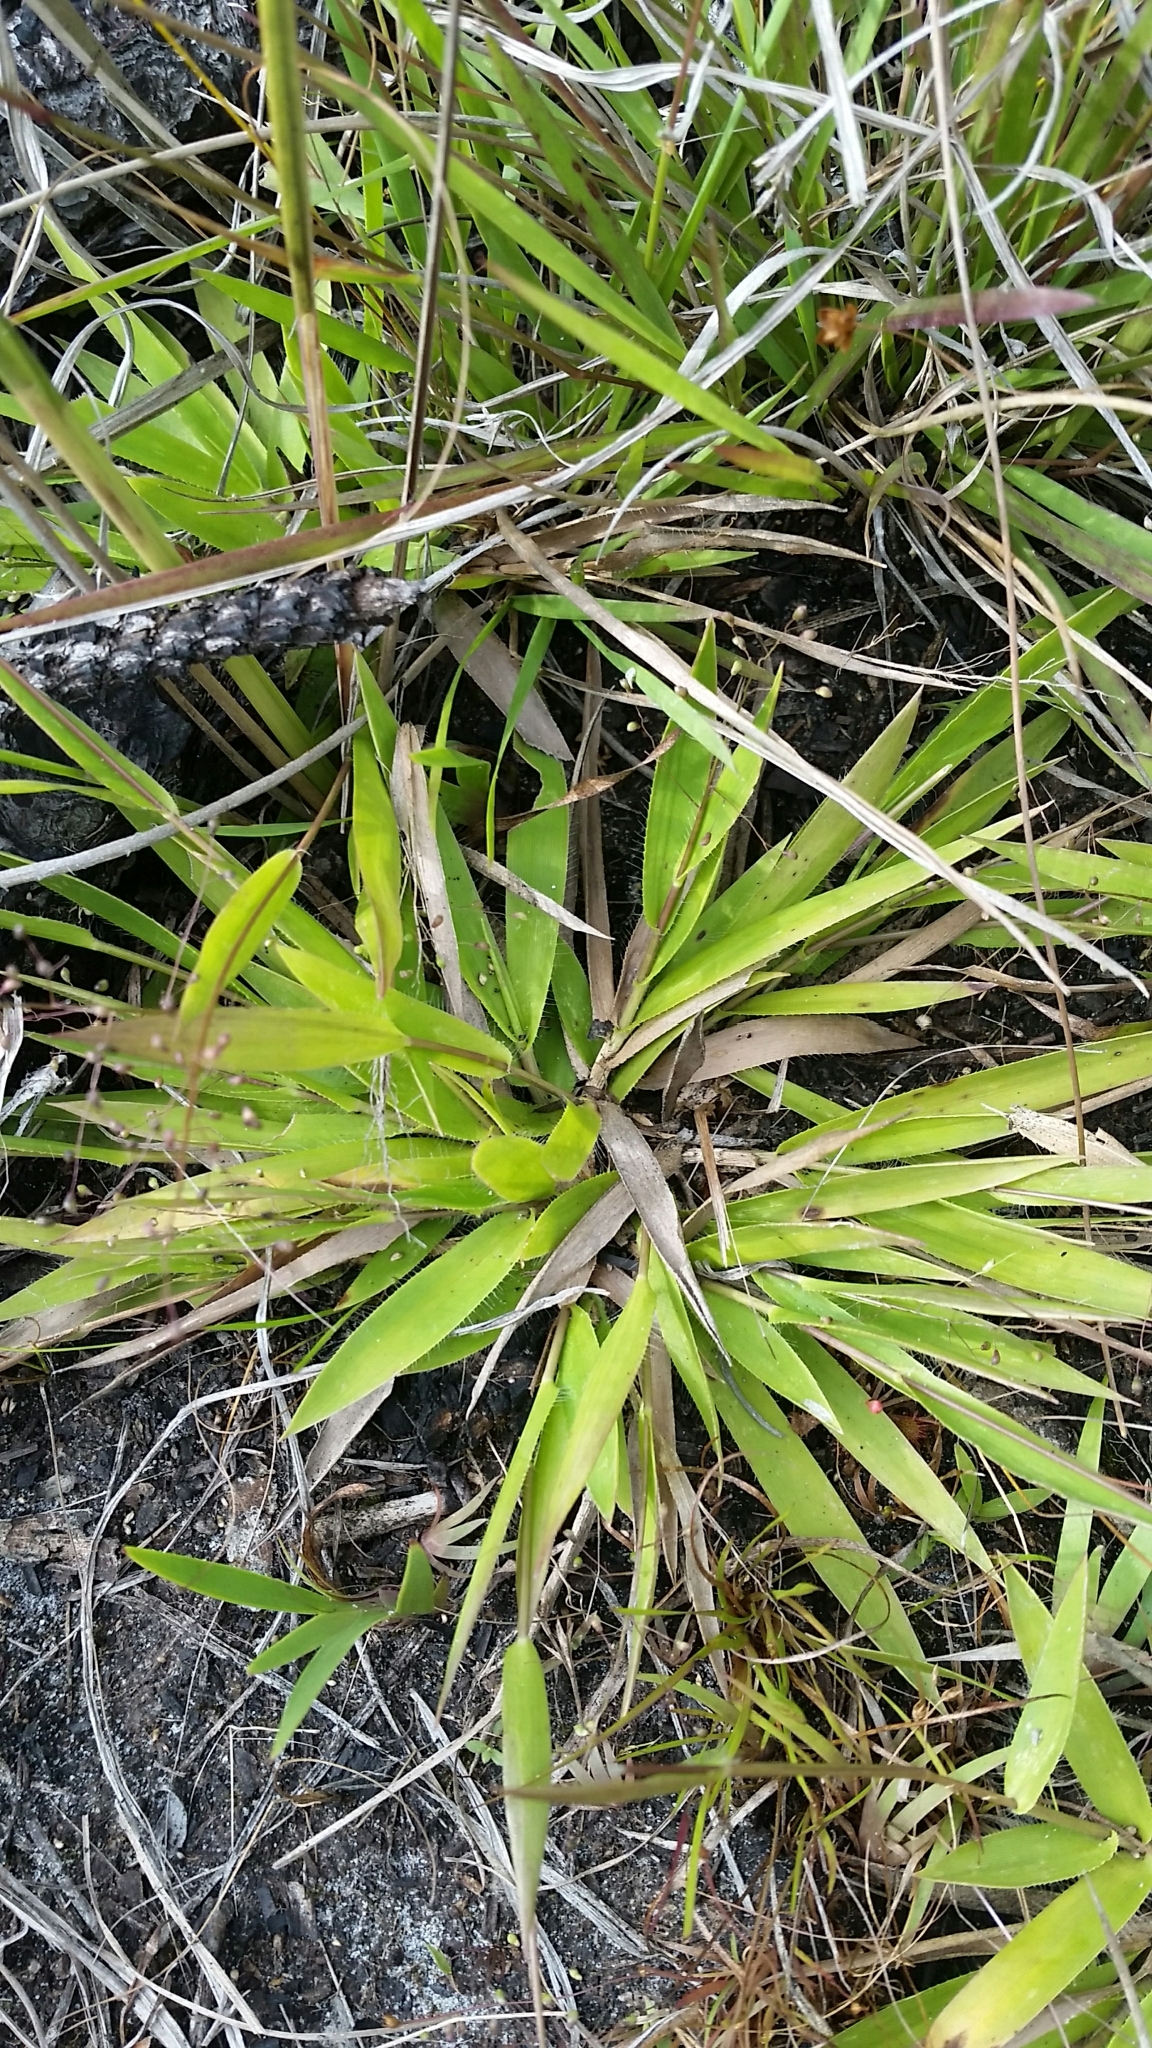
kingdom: Plantae
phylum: Tracheophyta
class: Liliopsida
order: Poales
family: Poaceae
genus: Dichanthelium
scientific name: Dichanthelium strigosum
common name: Cushion-tuft panic grass
